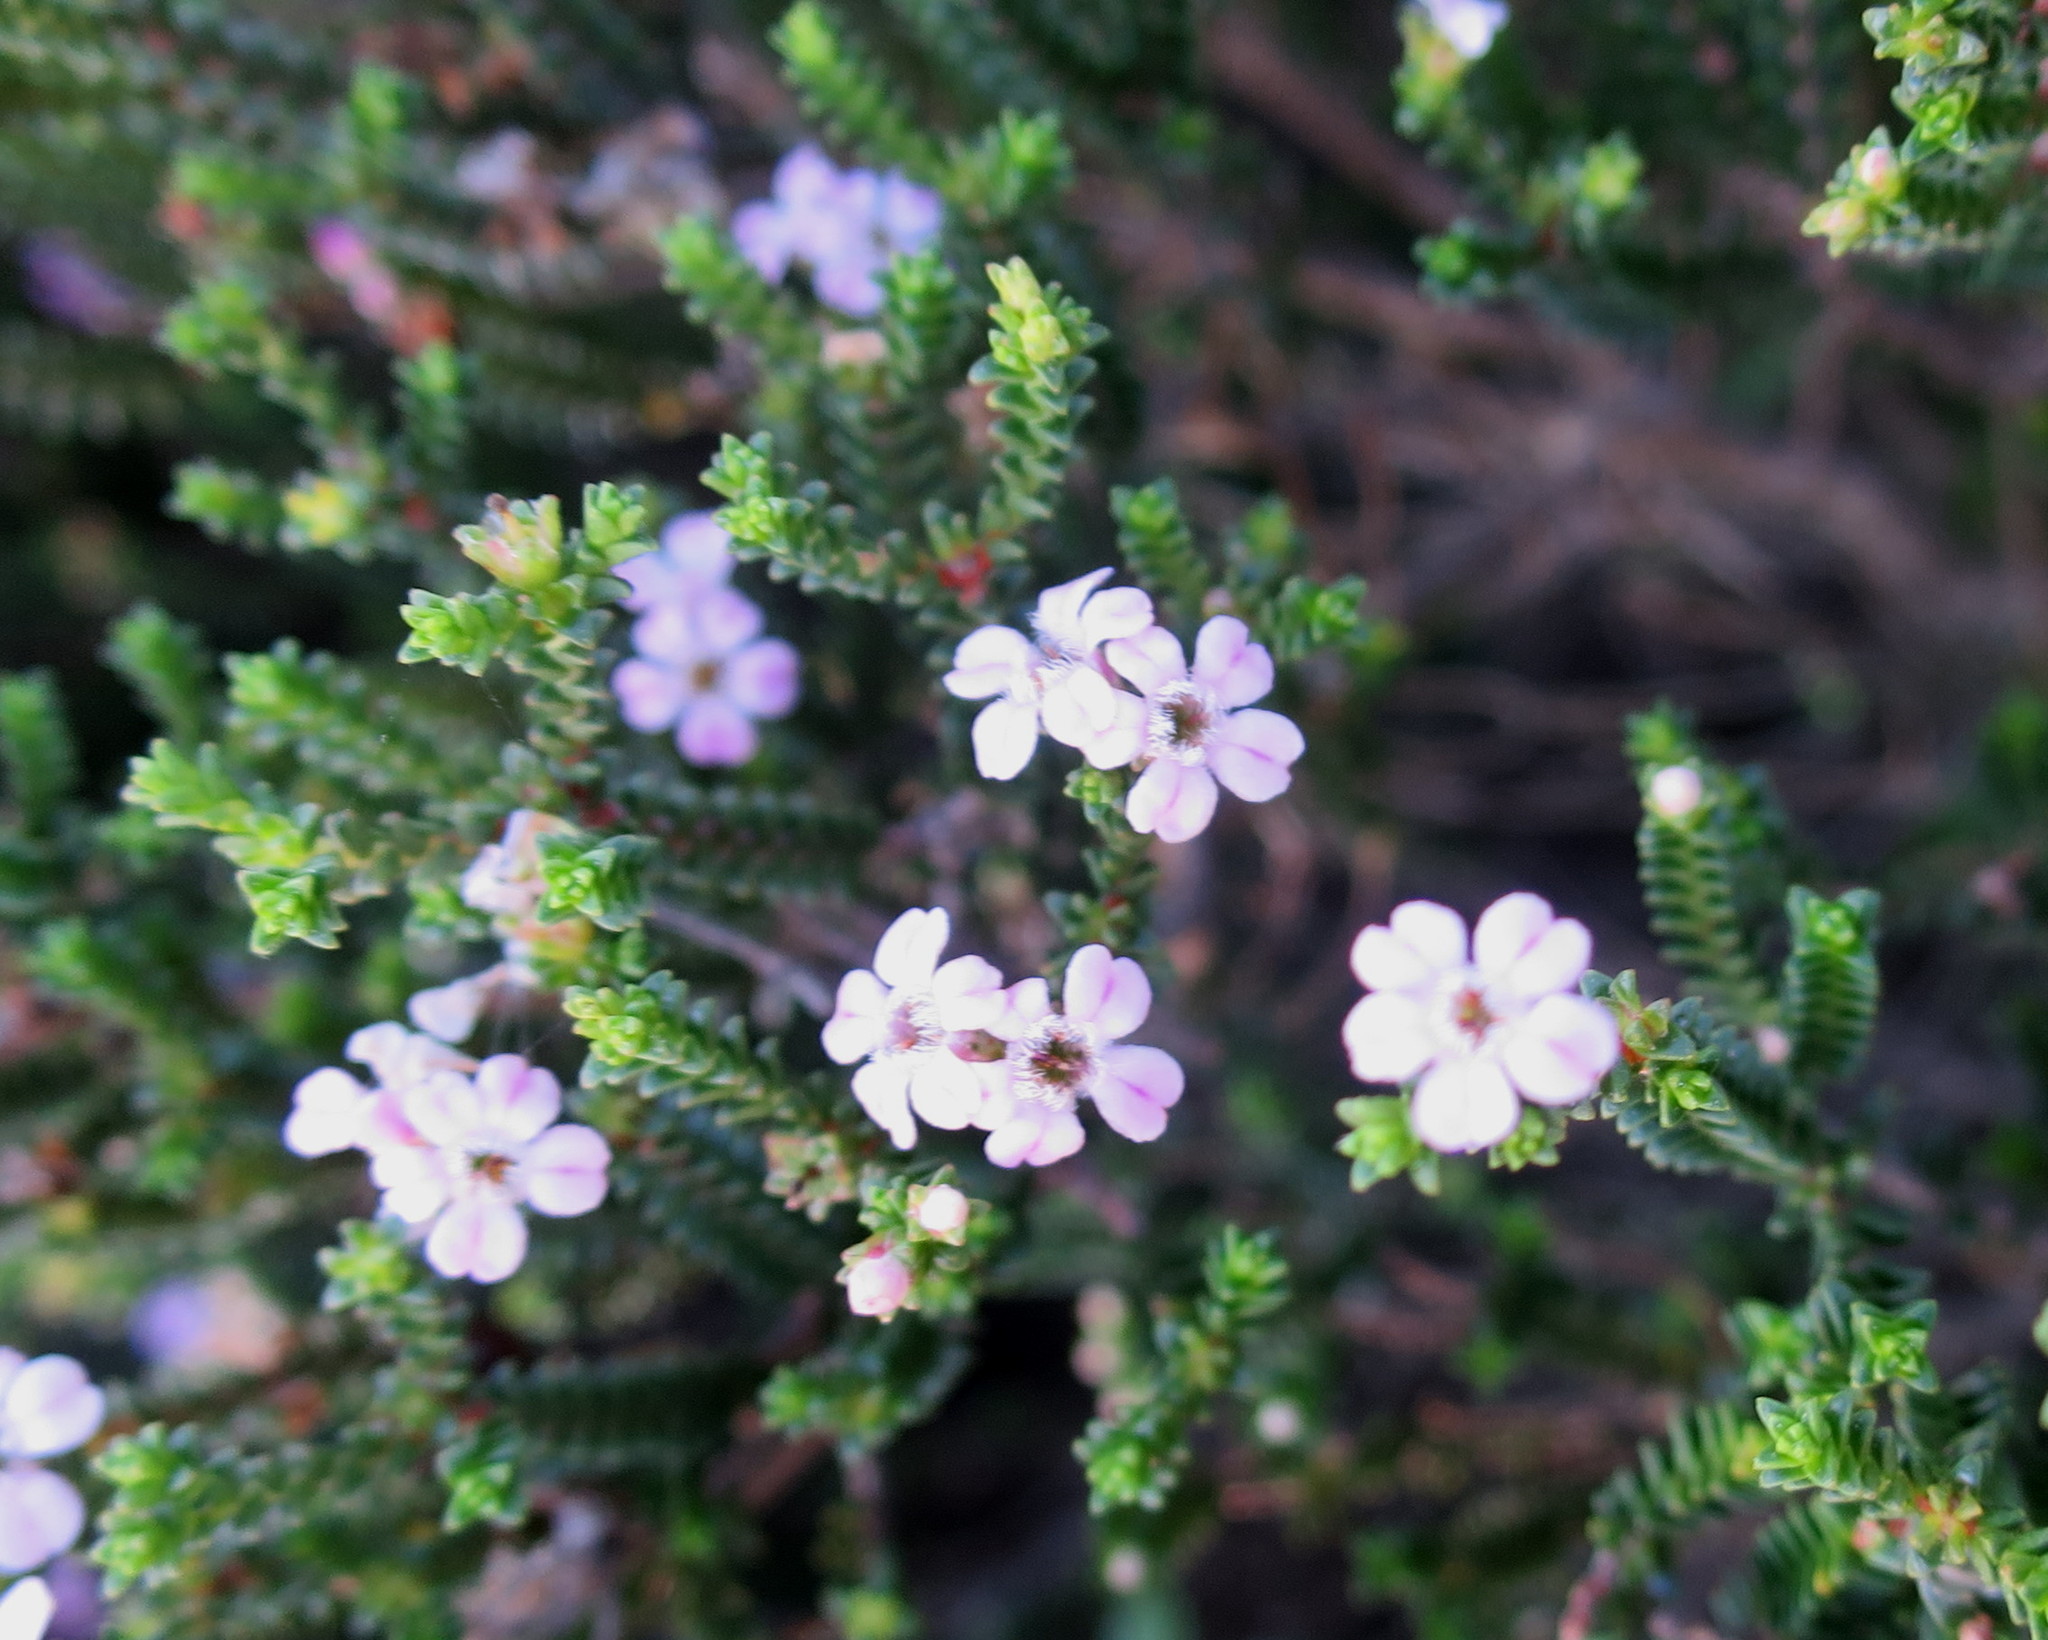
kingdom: Plantae
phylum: Tracheophyta
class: Magnoliopsida
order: Sapindales
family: Rutaceae
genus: Euchaetis
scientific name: Euchaetis albertiniana
